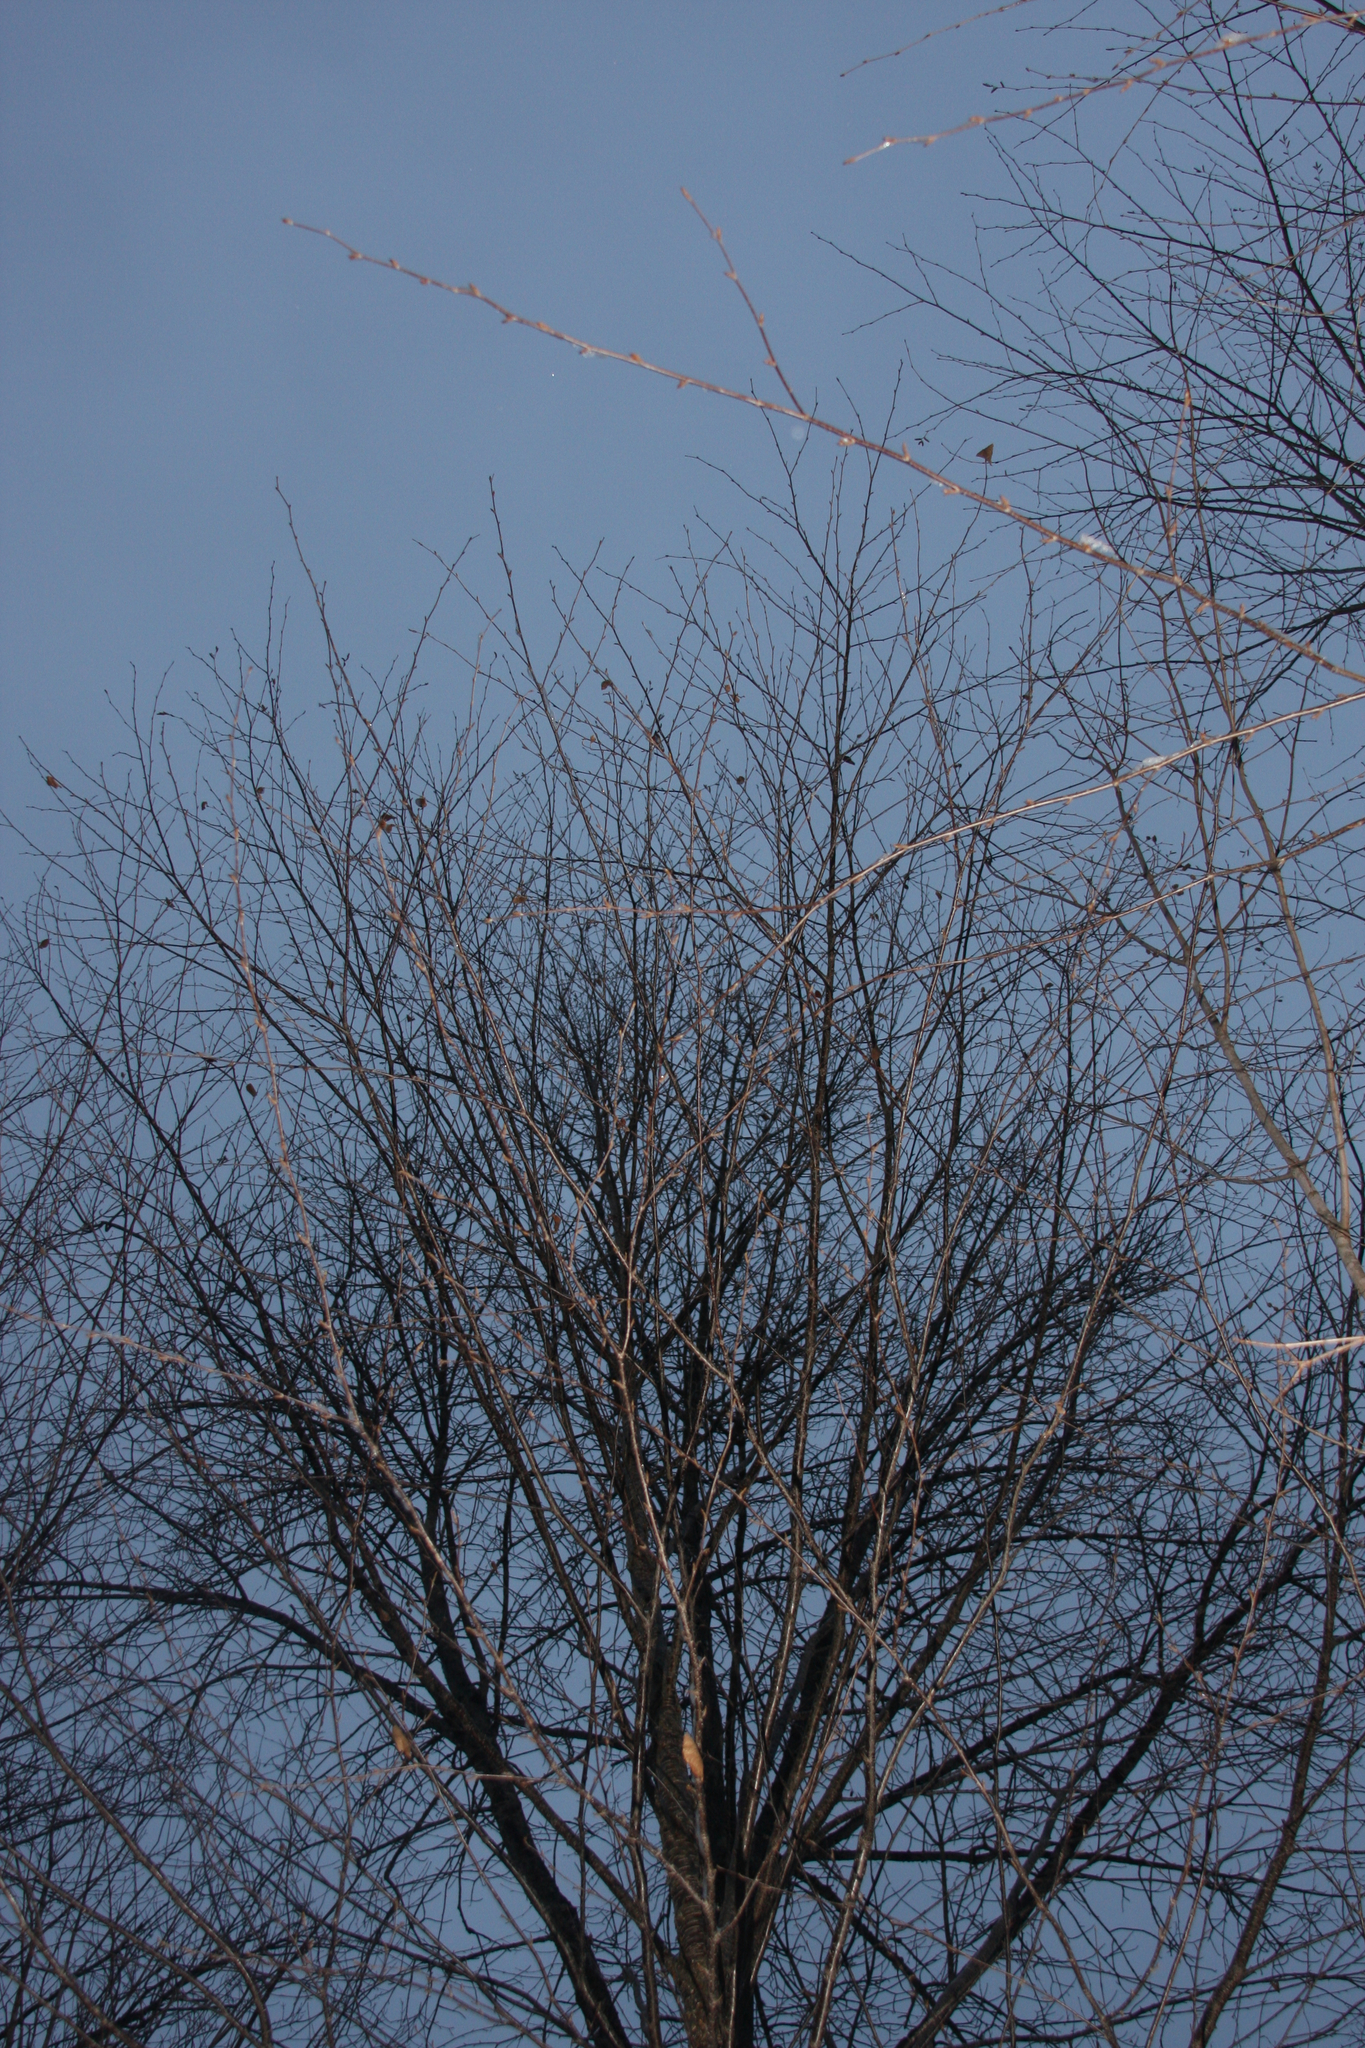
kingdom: Plantae
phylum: Tracheophyta
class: Magnoliopsida
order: Fagales
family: Betulaceae
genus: Betula
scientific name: Betula alleghaniensis
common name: Yellow birch
